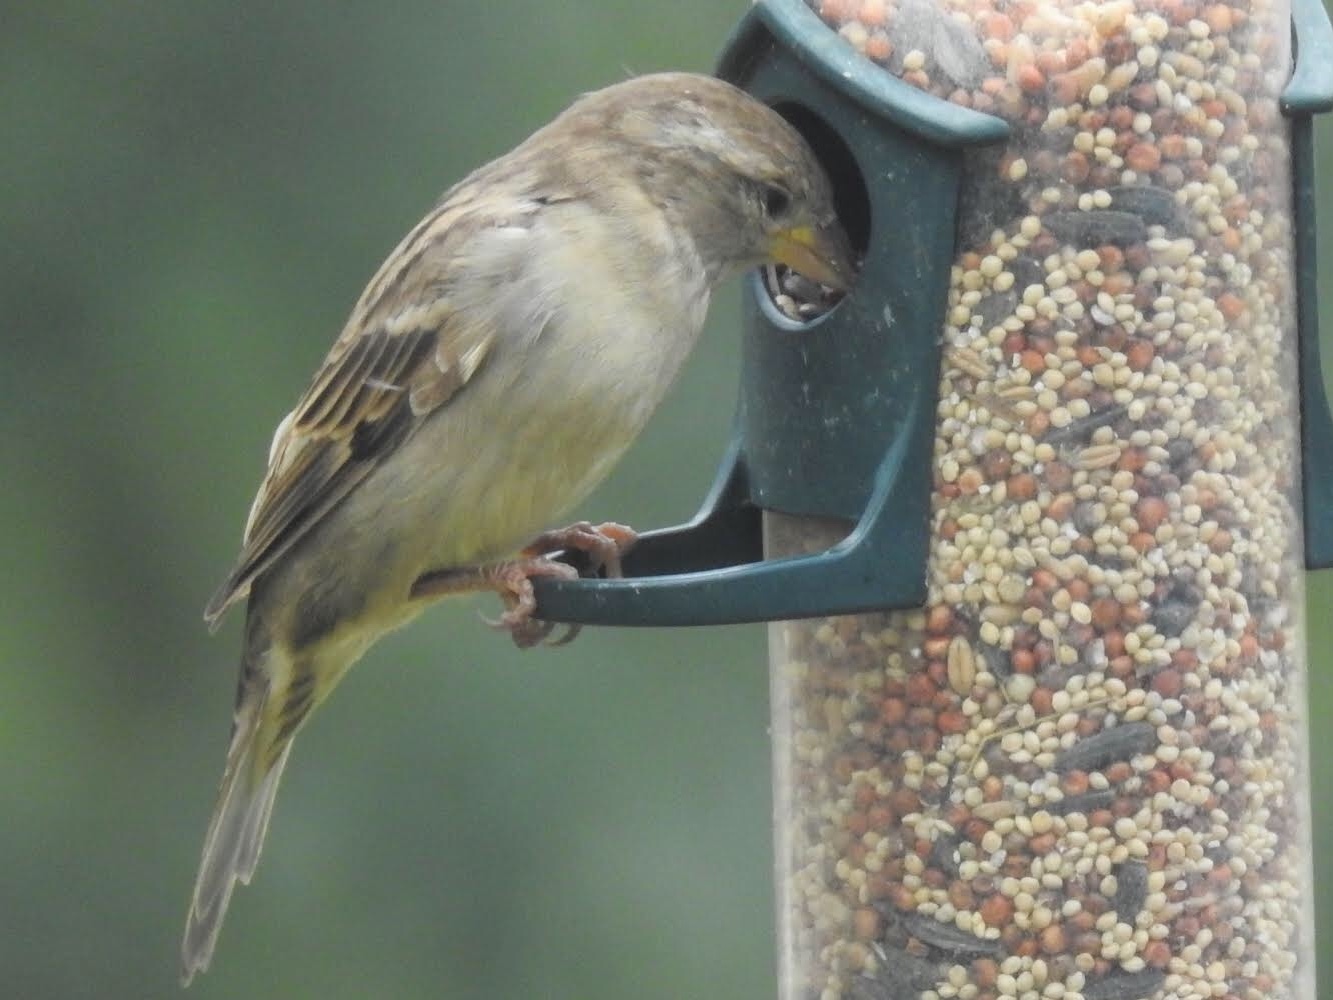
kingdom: Animalia
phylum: Chordata
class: Aves
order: Passeriformes
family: Passeridae
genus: Passer
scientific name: Passer domesticus
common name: House sparrow
